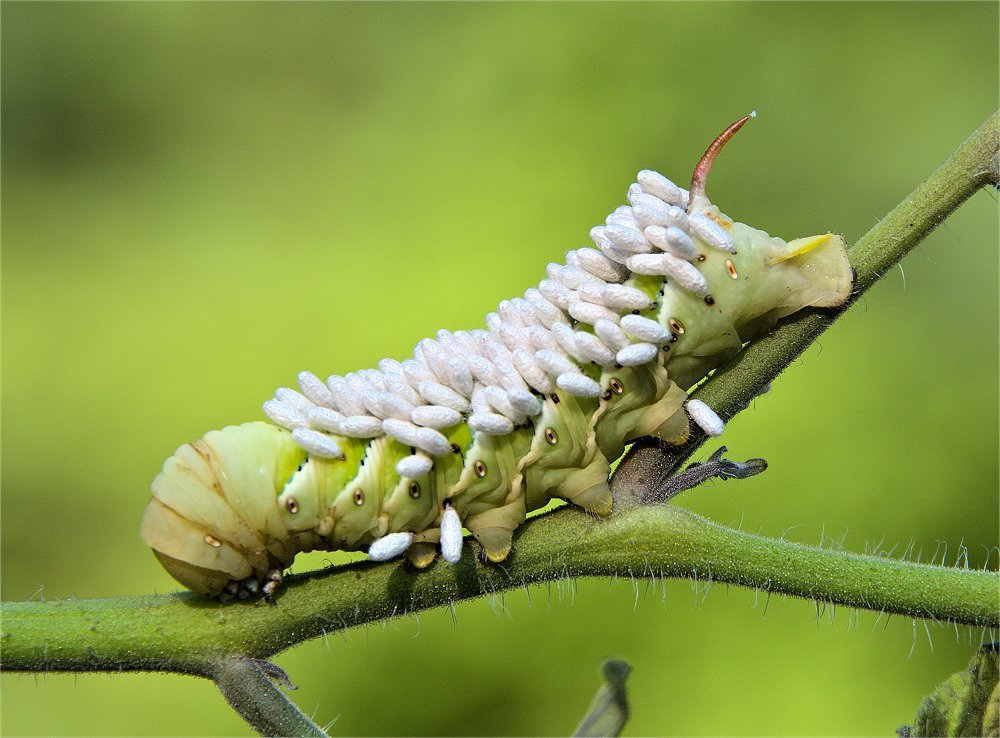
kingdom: Animalia
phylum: Arthropoda
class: Insecta
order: Hymenoptera
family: Braconidae
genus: Cotesia
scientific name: Cotesia congregata
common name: Hornworm parasitoid wasp
